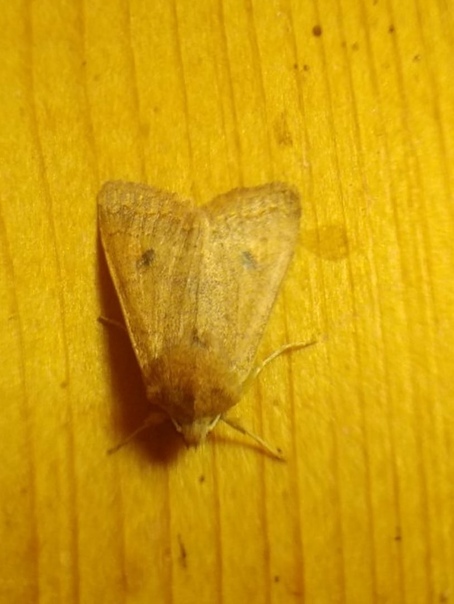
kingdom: Animalia
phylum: Arthropoda
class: Insecta
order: Lepidoptera
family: Noctuidae
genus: Sunira
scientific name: Sunira circellaris
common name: Brick
